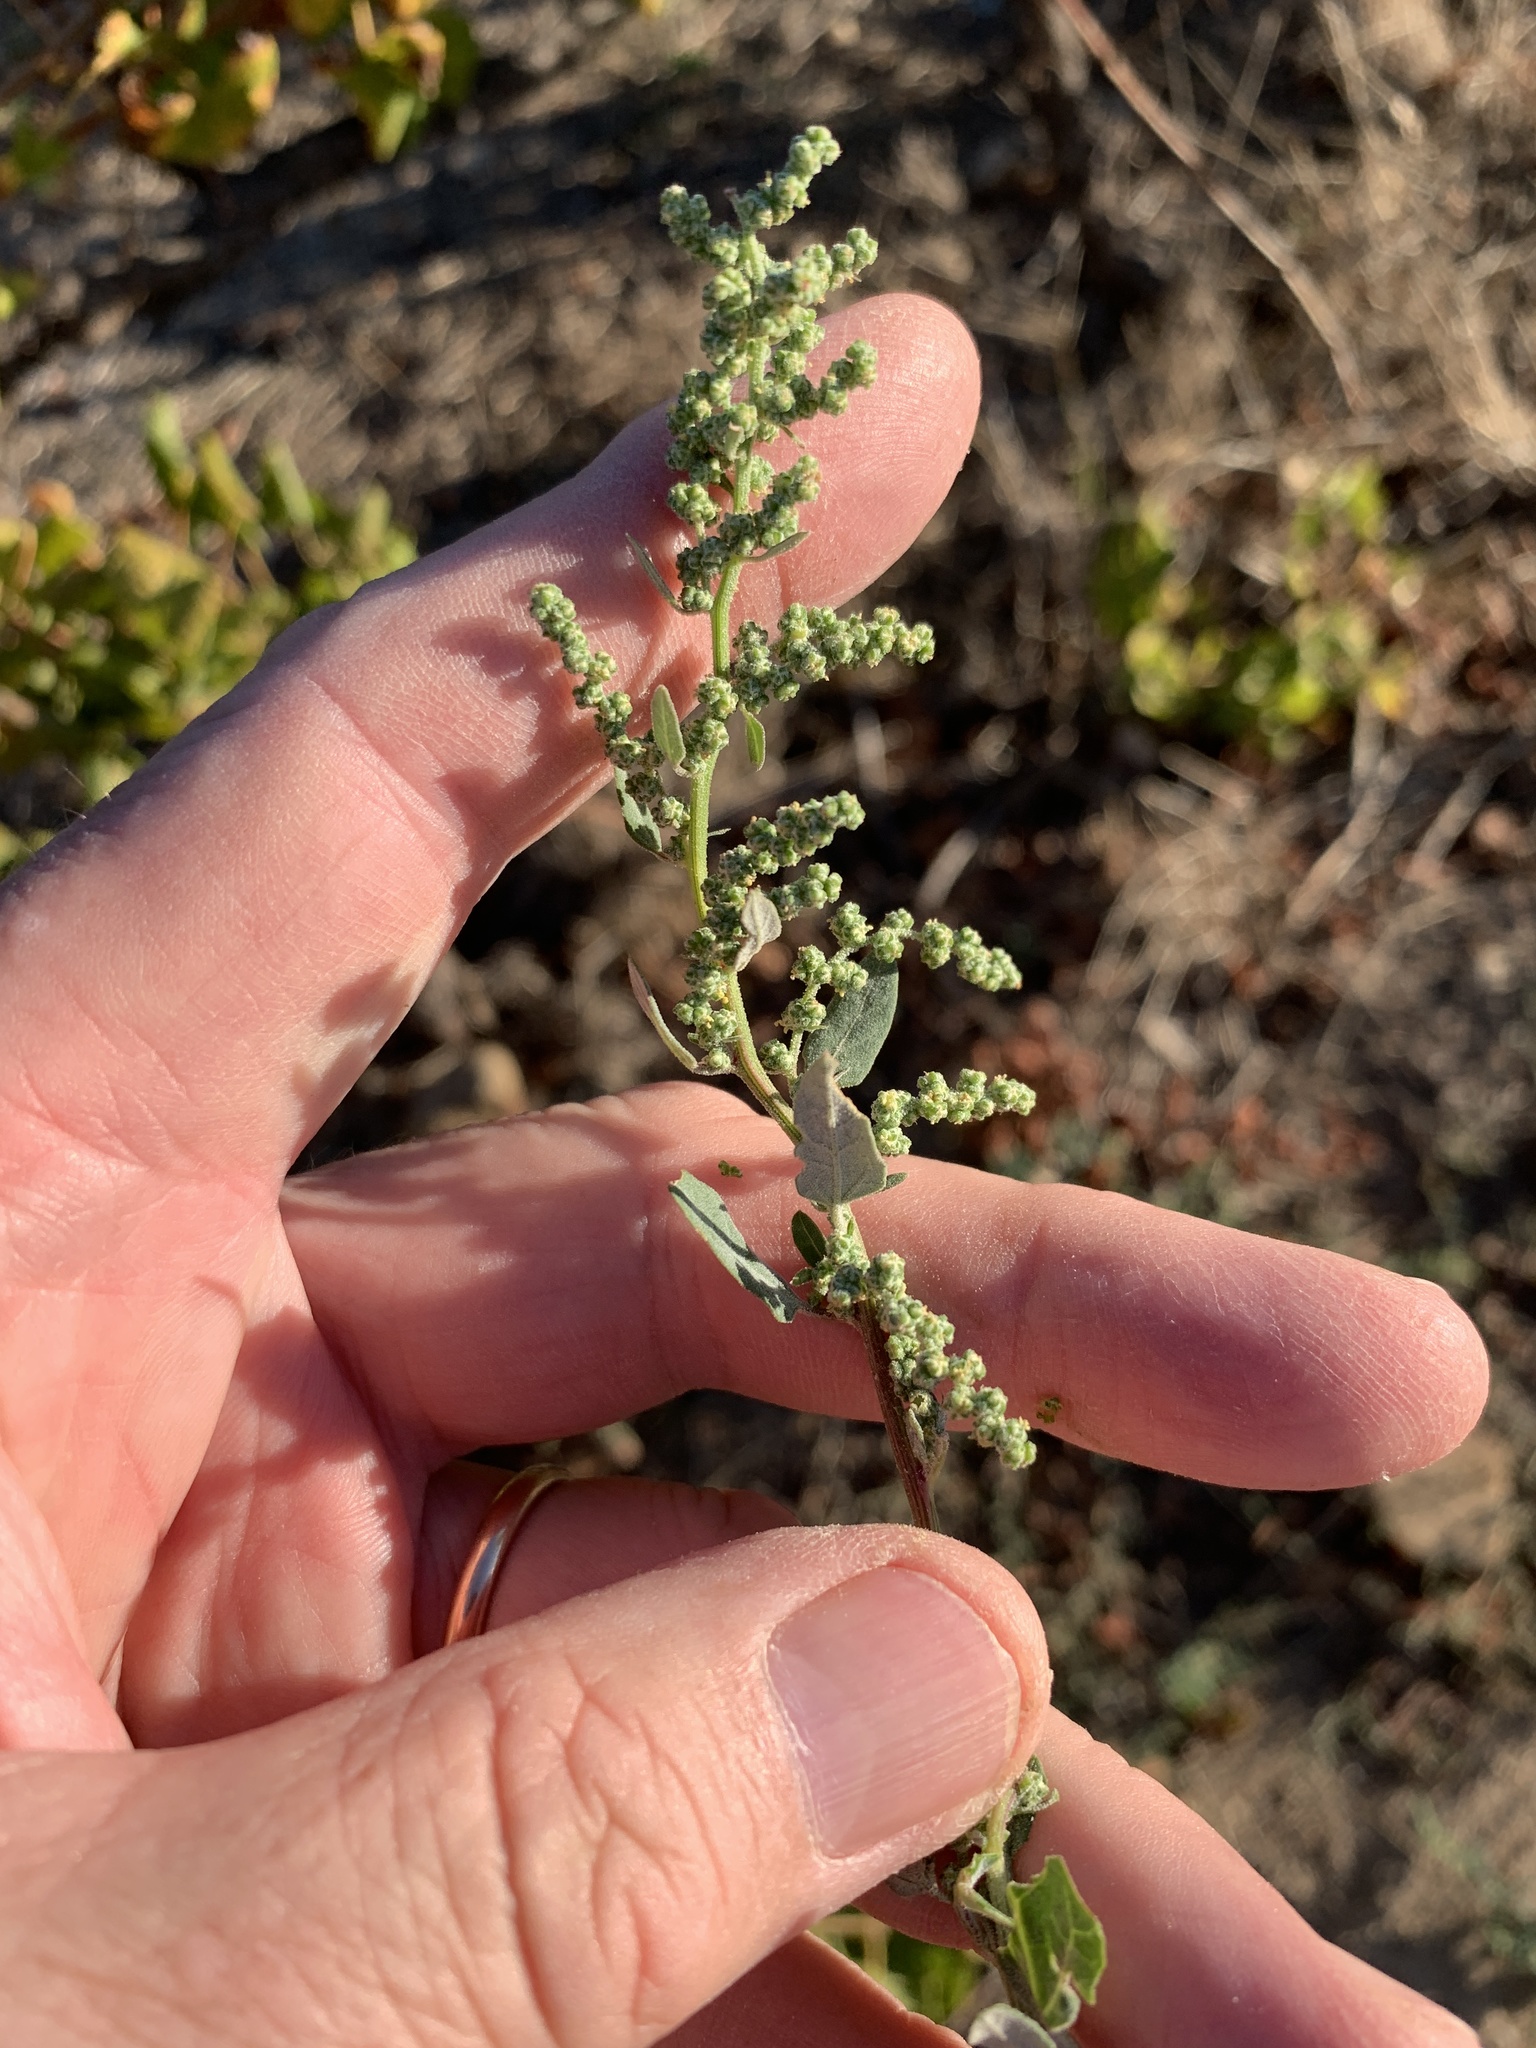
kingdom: Plantae
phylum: Tracheophyta
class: Magnoliopsida
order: Caryophyllales
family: Amaranthaceae
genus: Chenopodium
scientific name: Chenopodium album
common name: Fat-hen
